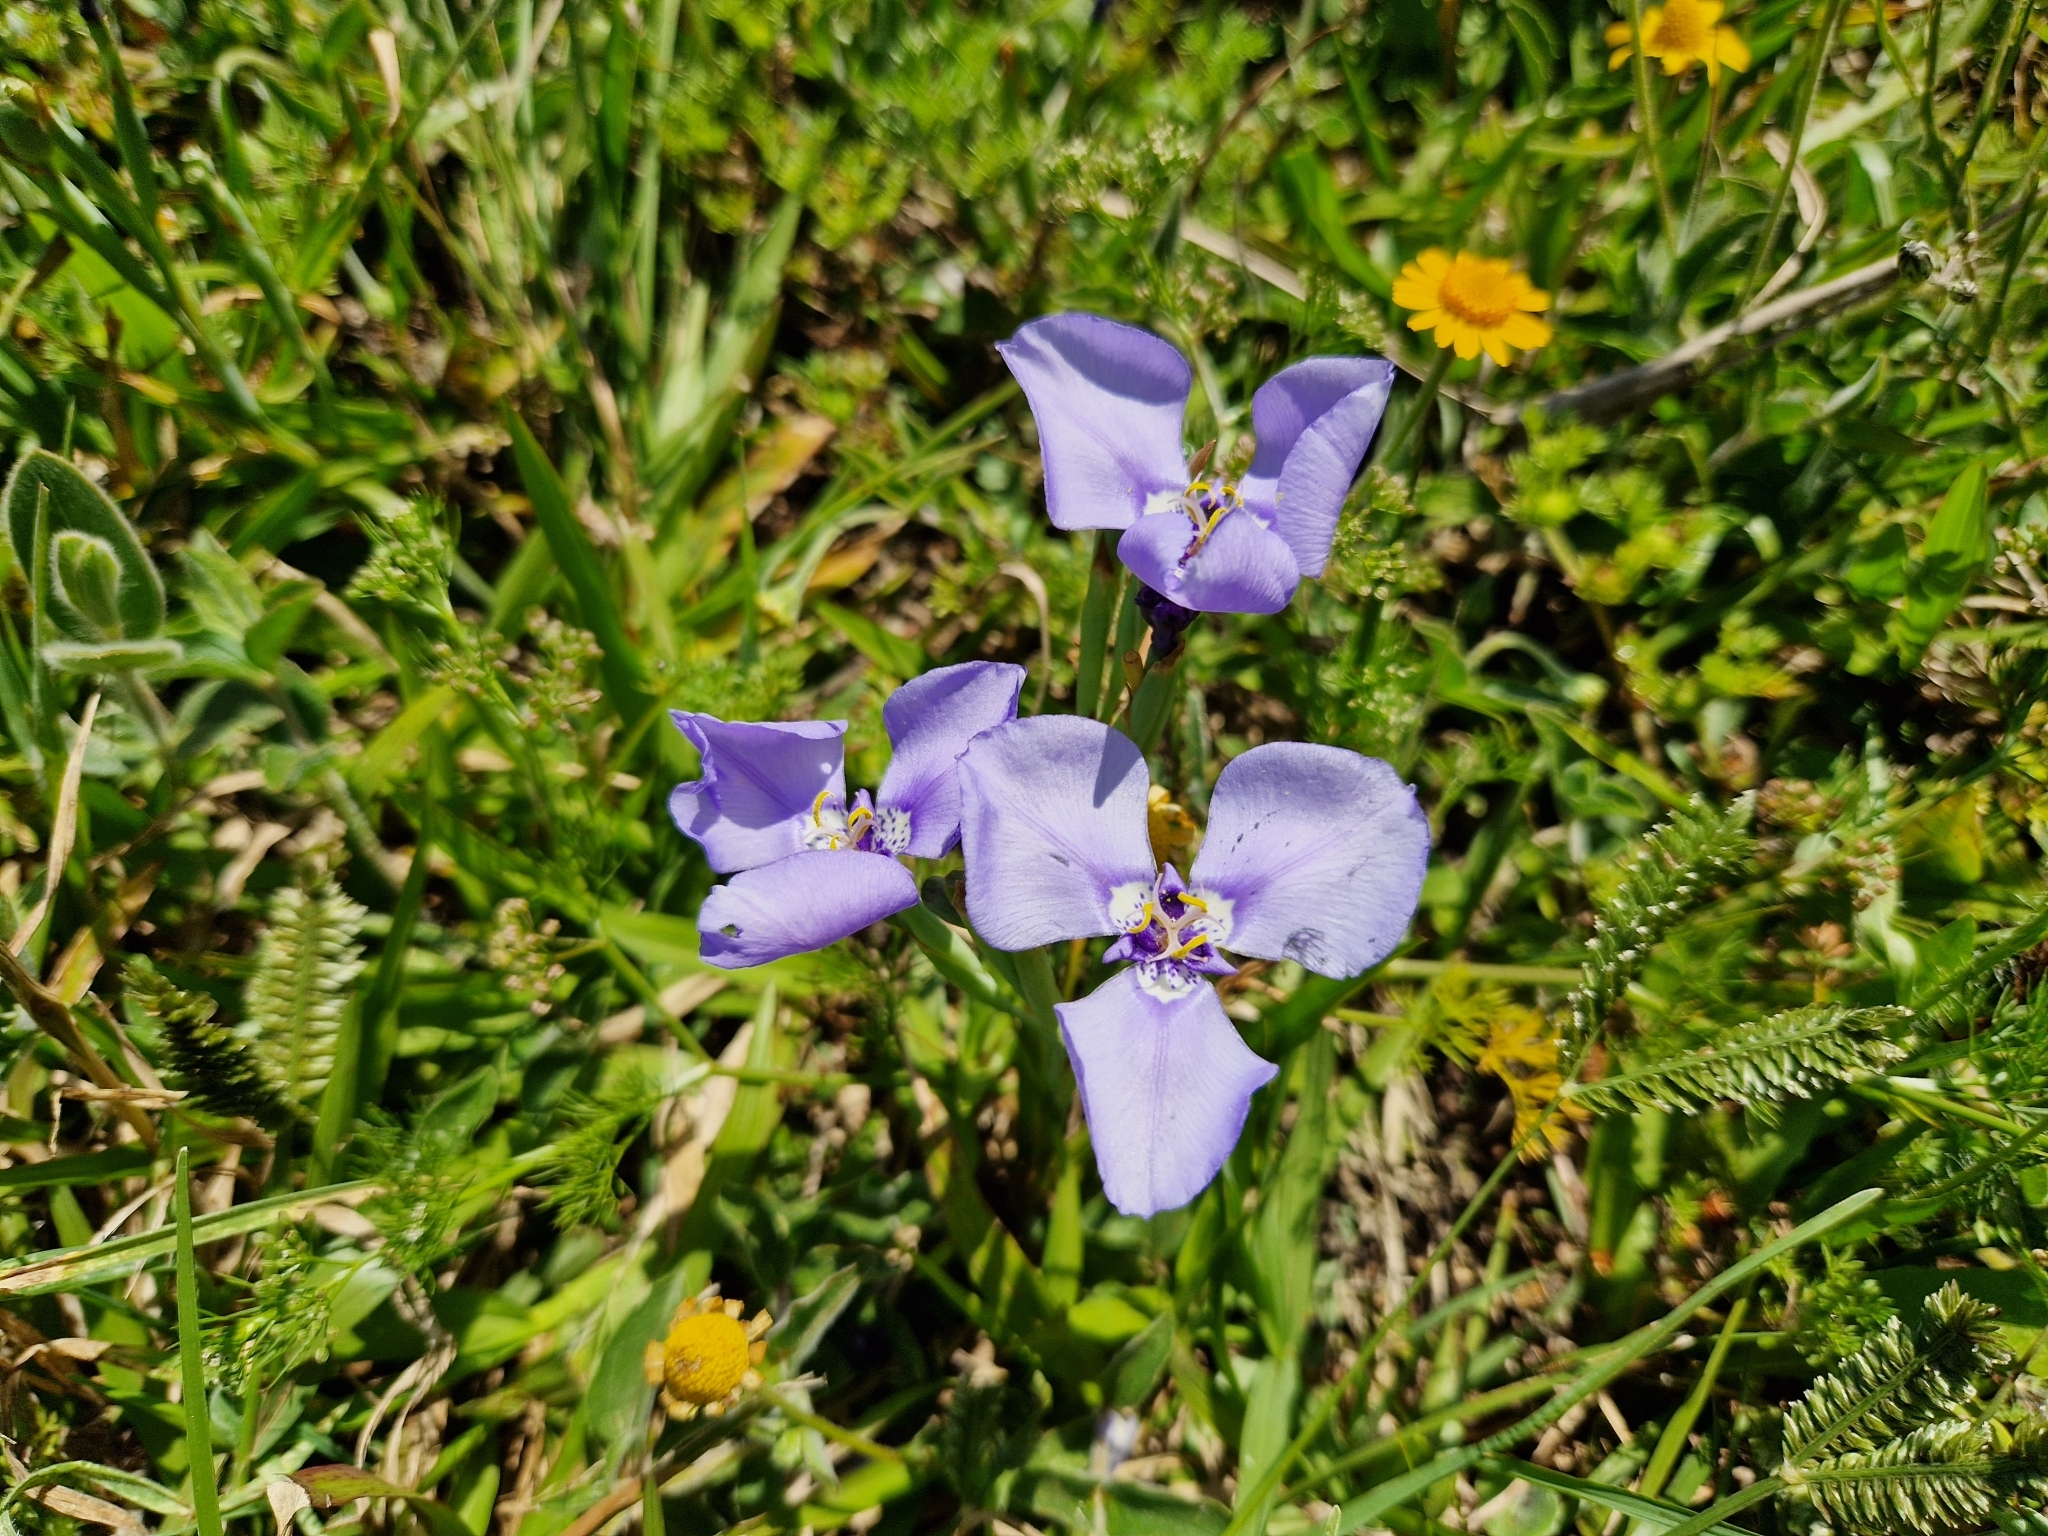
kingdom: Plantae
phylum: Tracheophyta
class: Liliopsida
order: Asparagales
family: Iridaceae
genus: Herbertia
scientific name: Herbertia lahue
